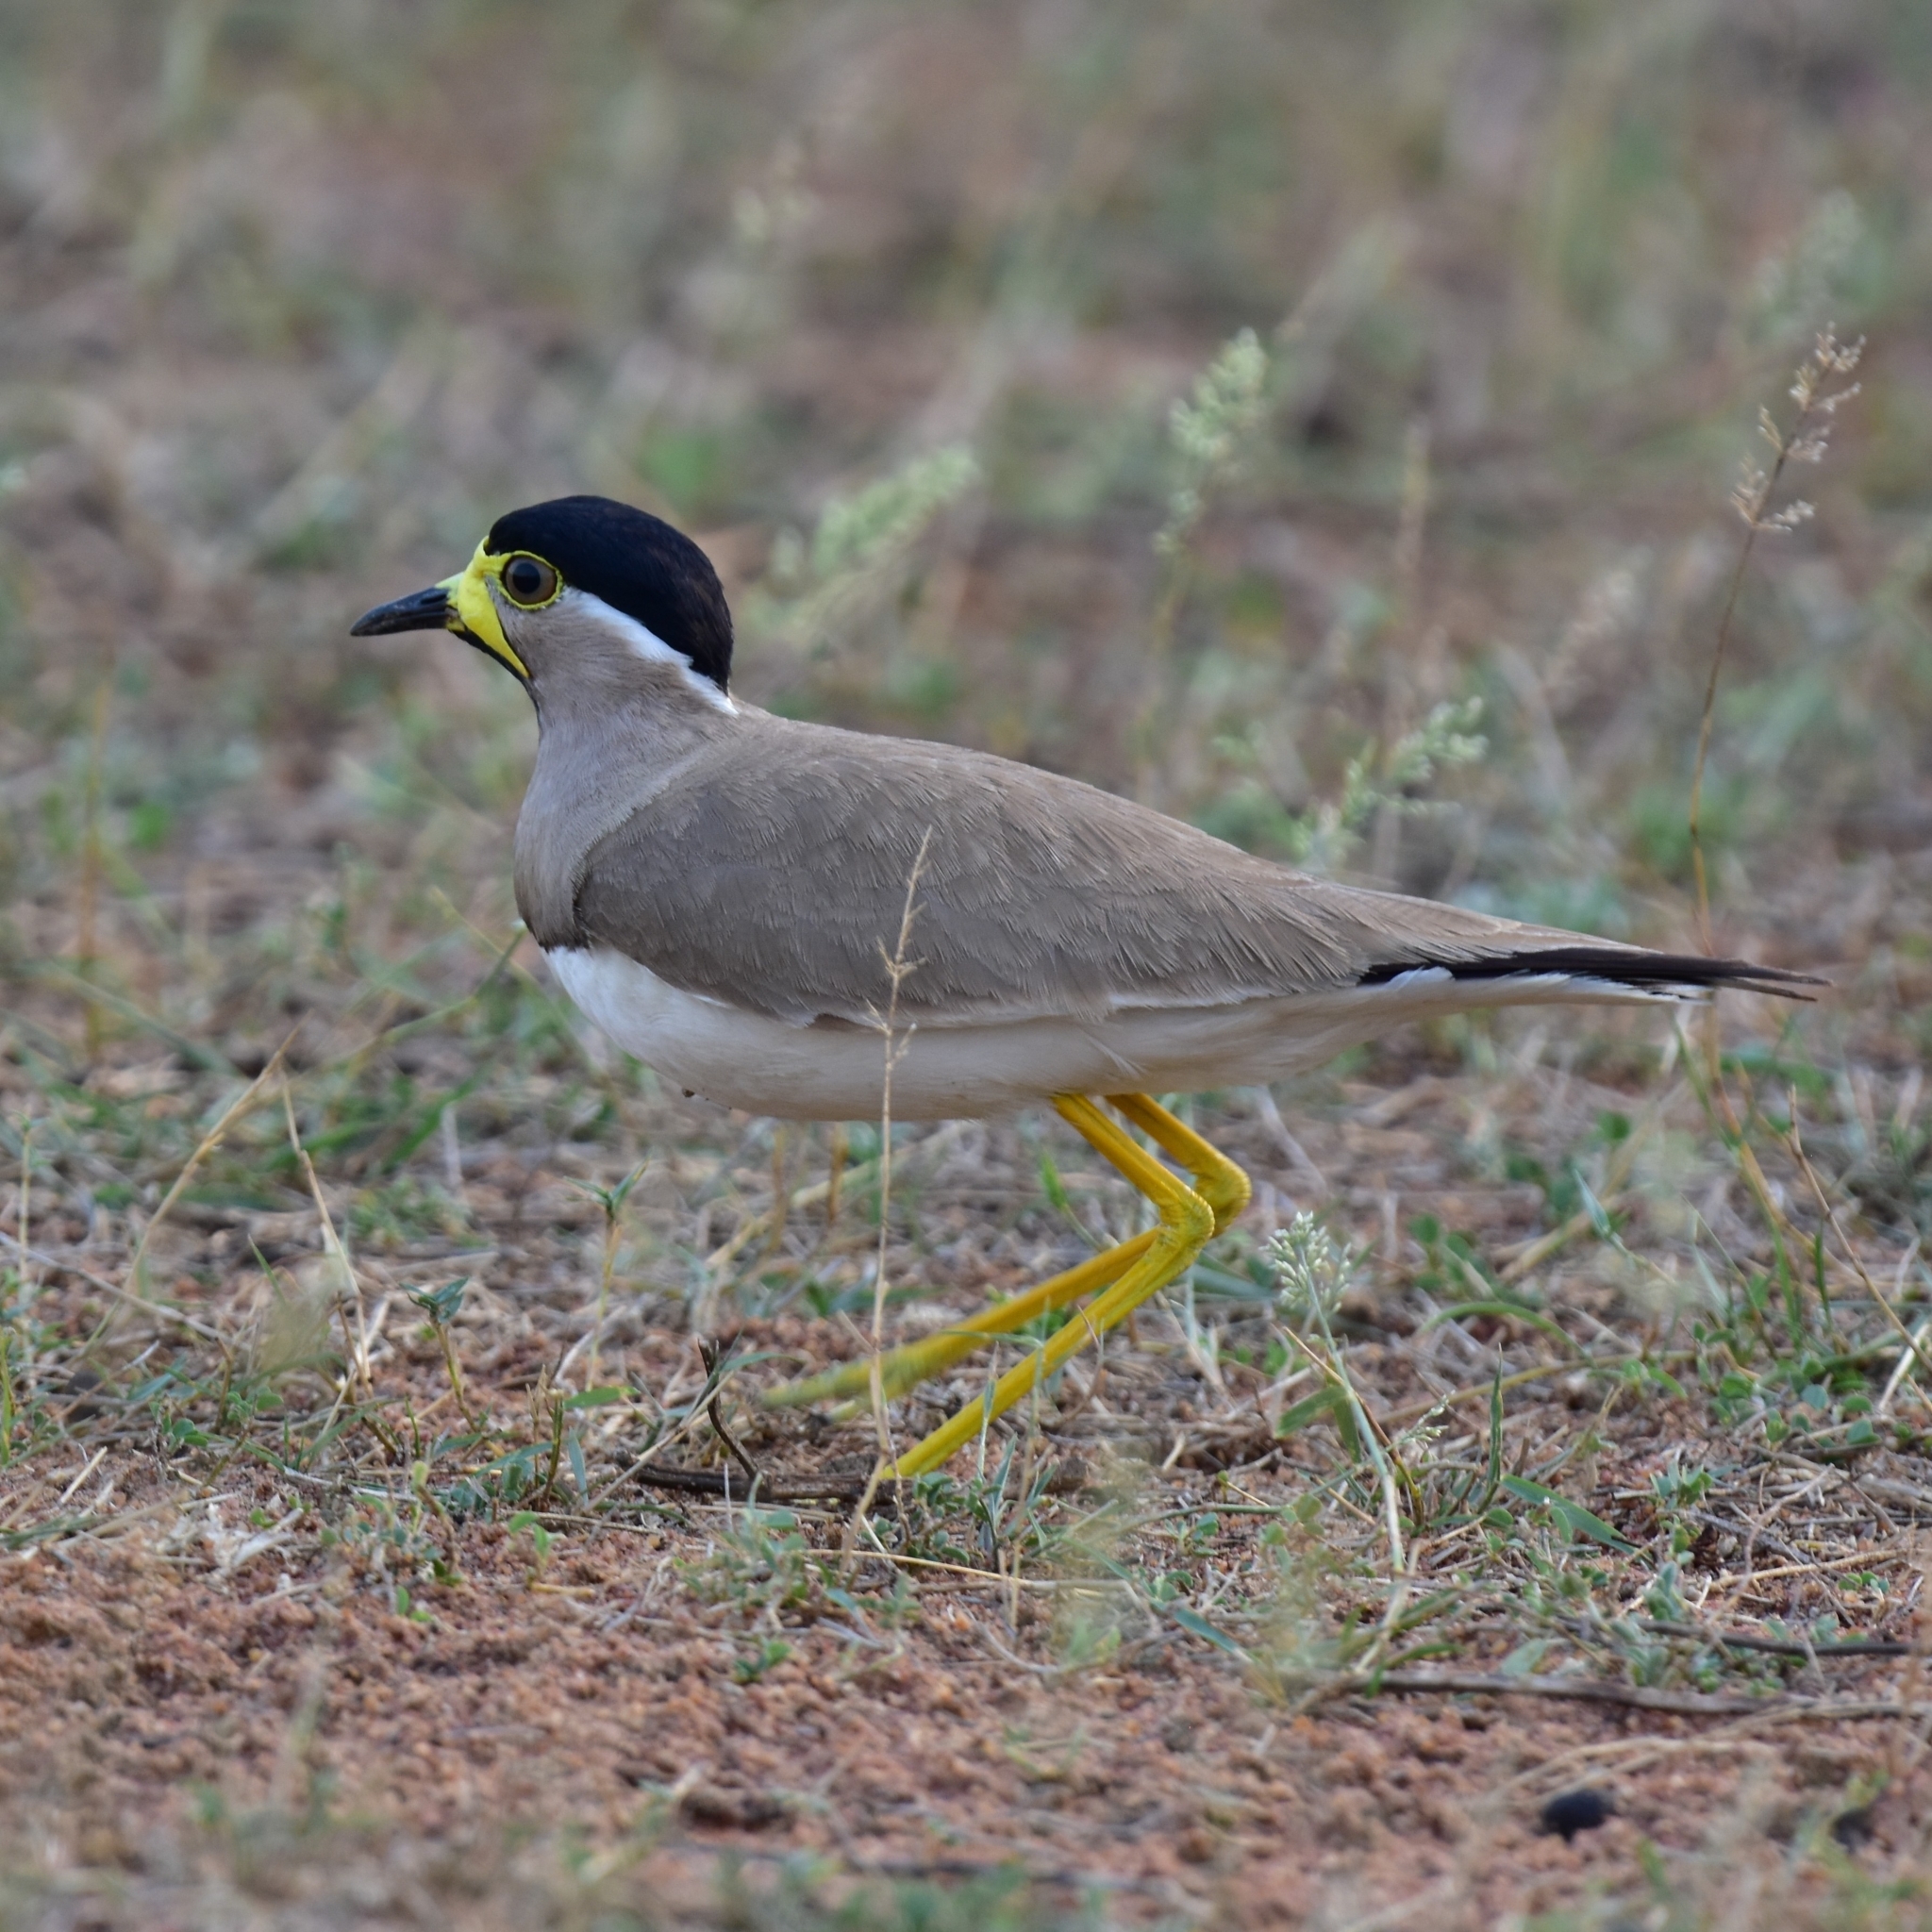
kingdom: Animalia
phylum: Chordata
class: Aves
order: Charadriiformes
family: Charadriidae
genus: Vanellus
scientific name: Vanellus malabaricus
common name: Yellow-wattled lapwing
